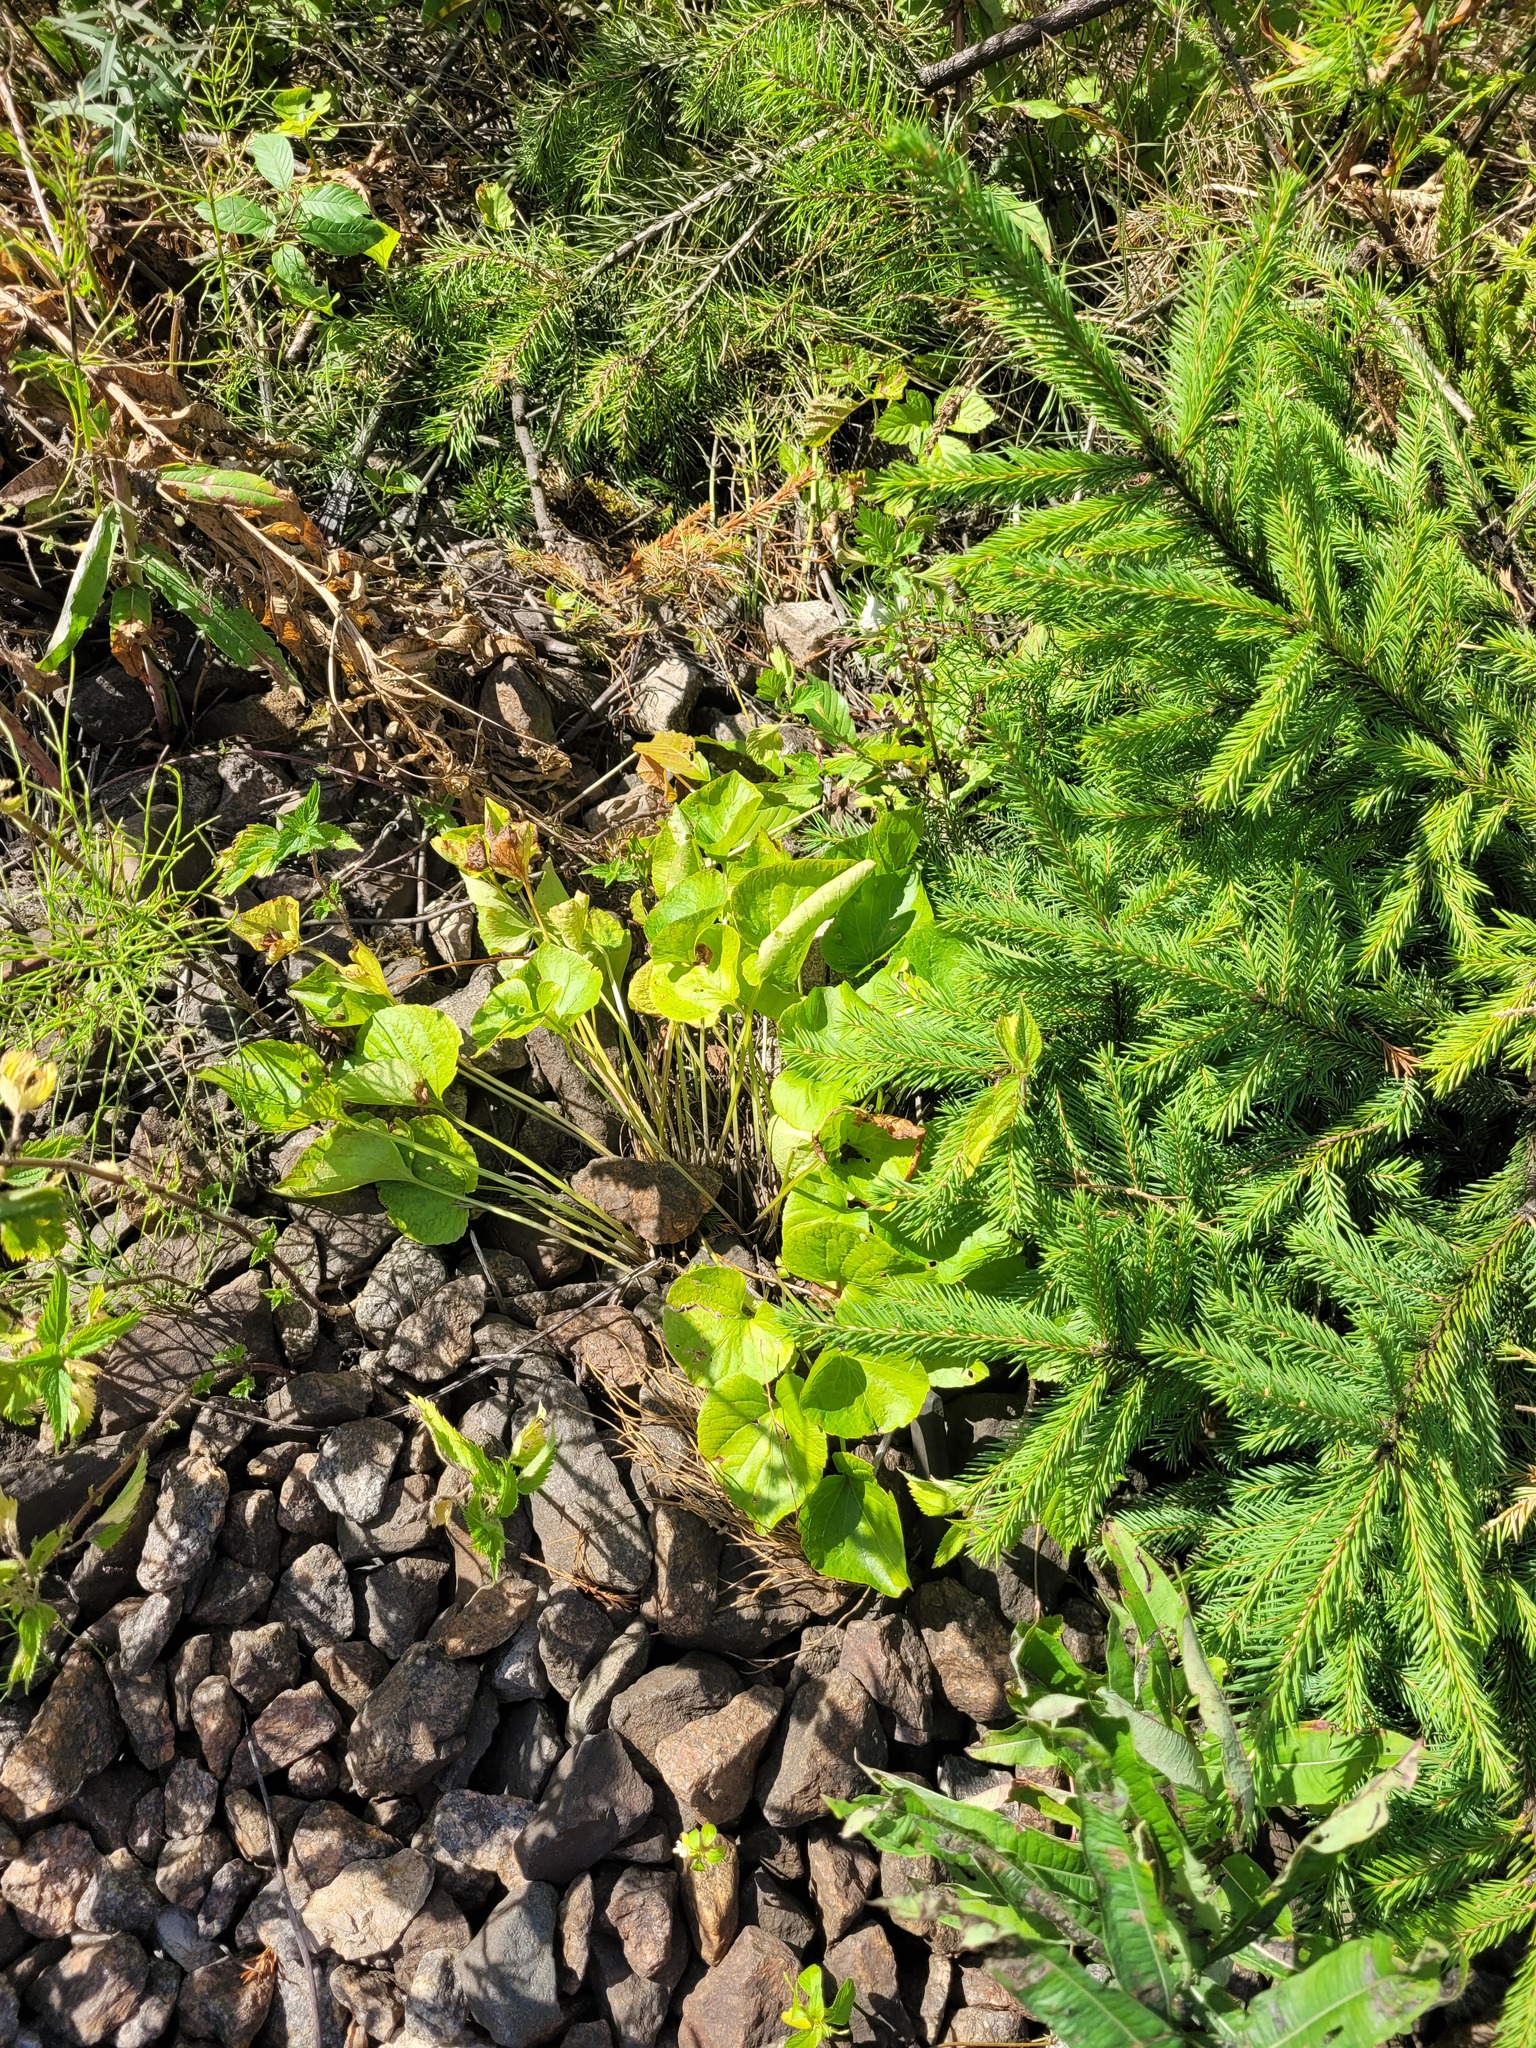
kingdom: Plantae
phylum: Tracheophyta
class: Magnoliopsida
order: Malpighiales
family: Violaceae
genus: Viola
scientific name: Viola mirabilis
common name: Wonder violet
